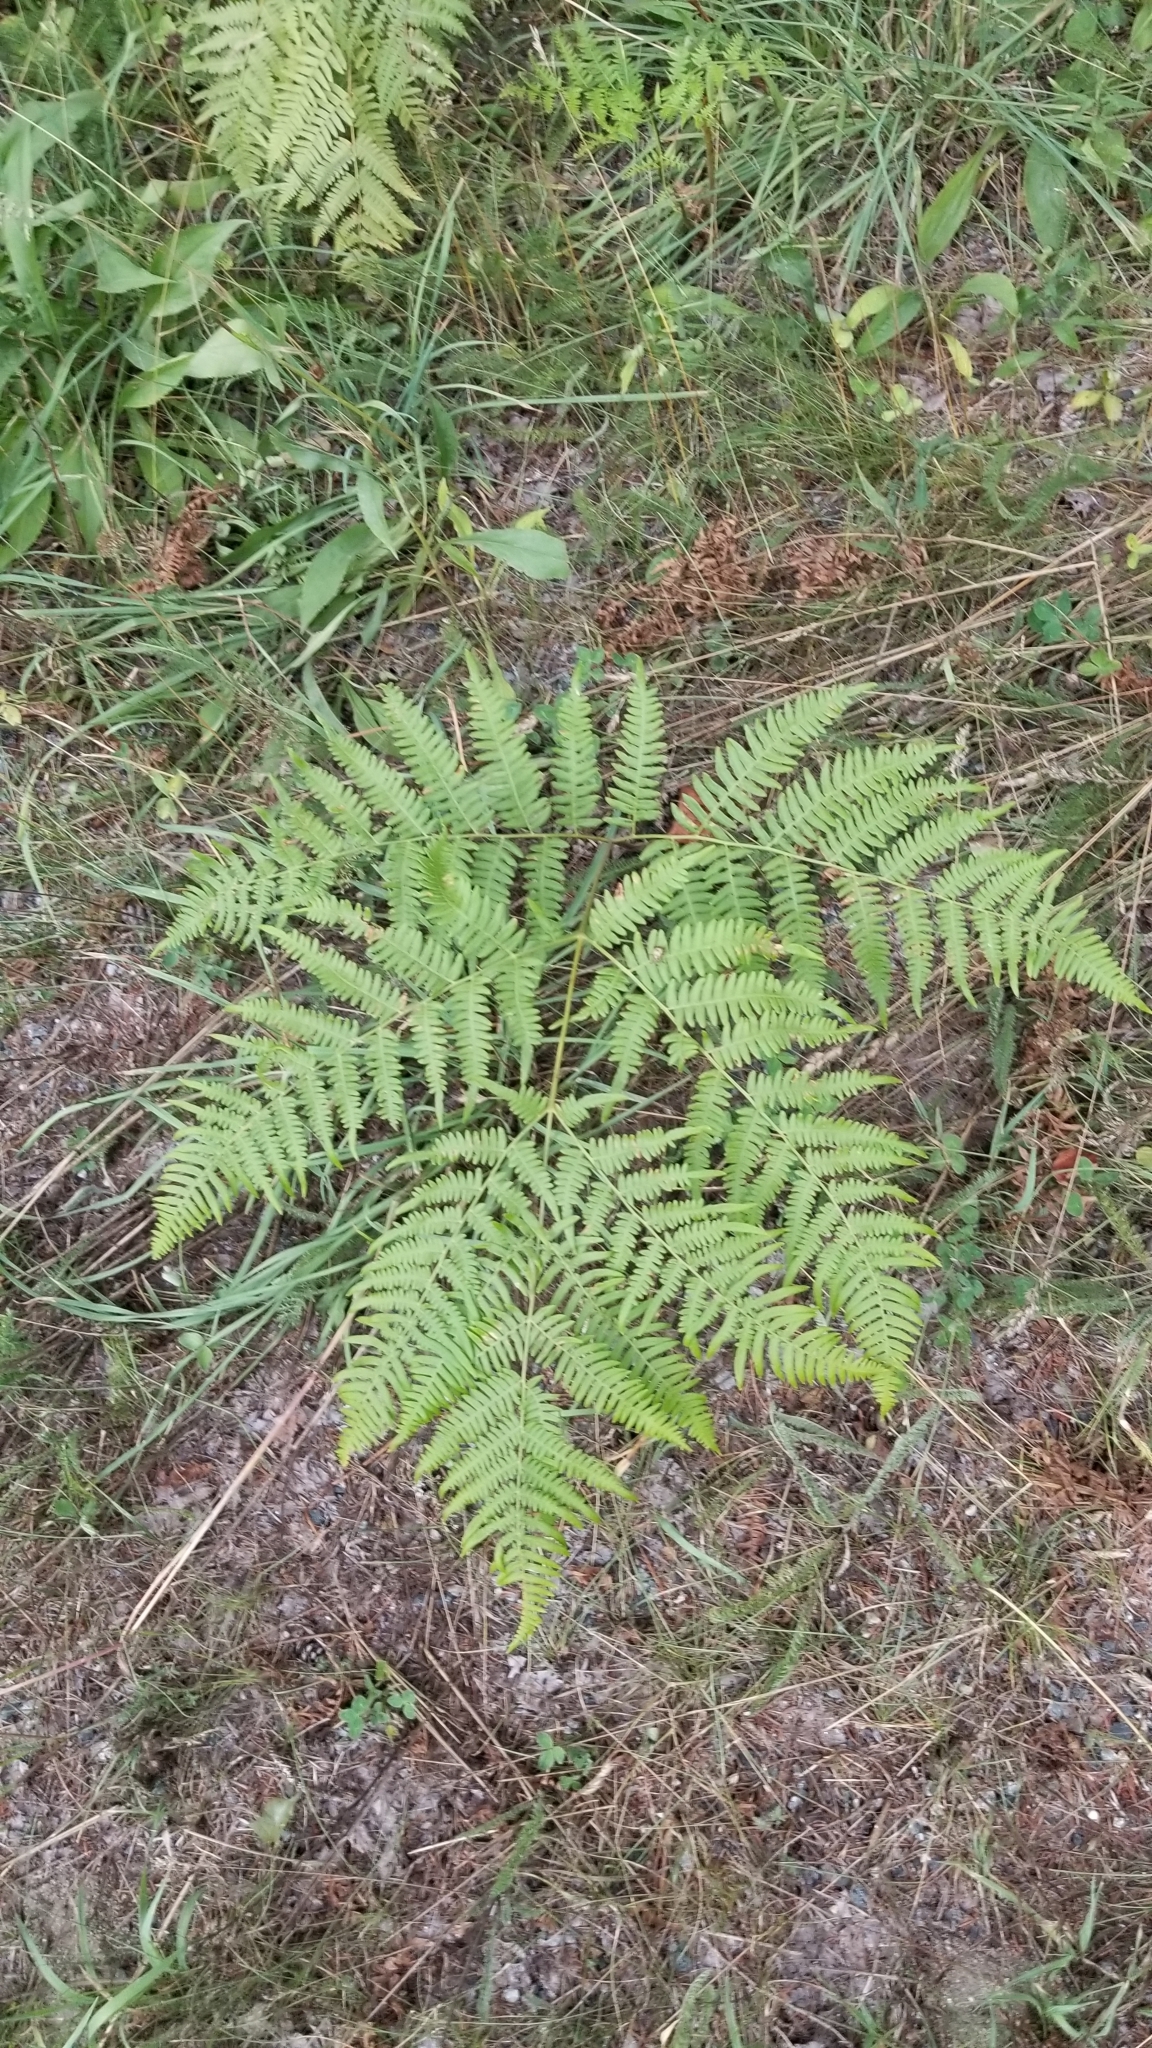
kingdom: Plantae
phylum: Tracheophyta
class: Polypodiopsida
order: Polypodiales
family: Dennstaedtiaceae
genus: Pteridium
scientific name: Pteridium aquilinum
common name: Bracken
